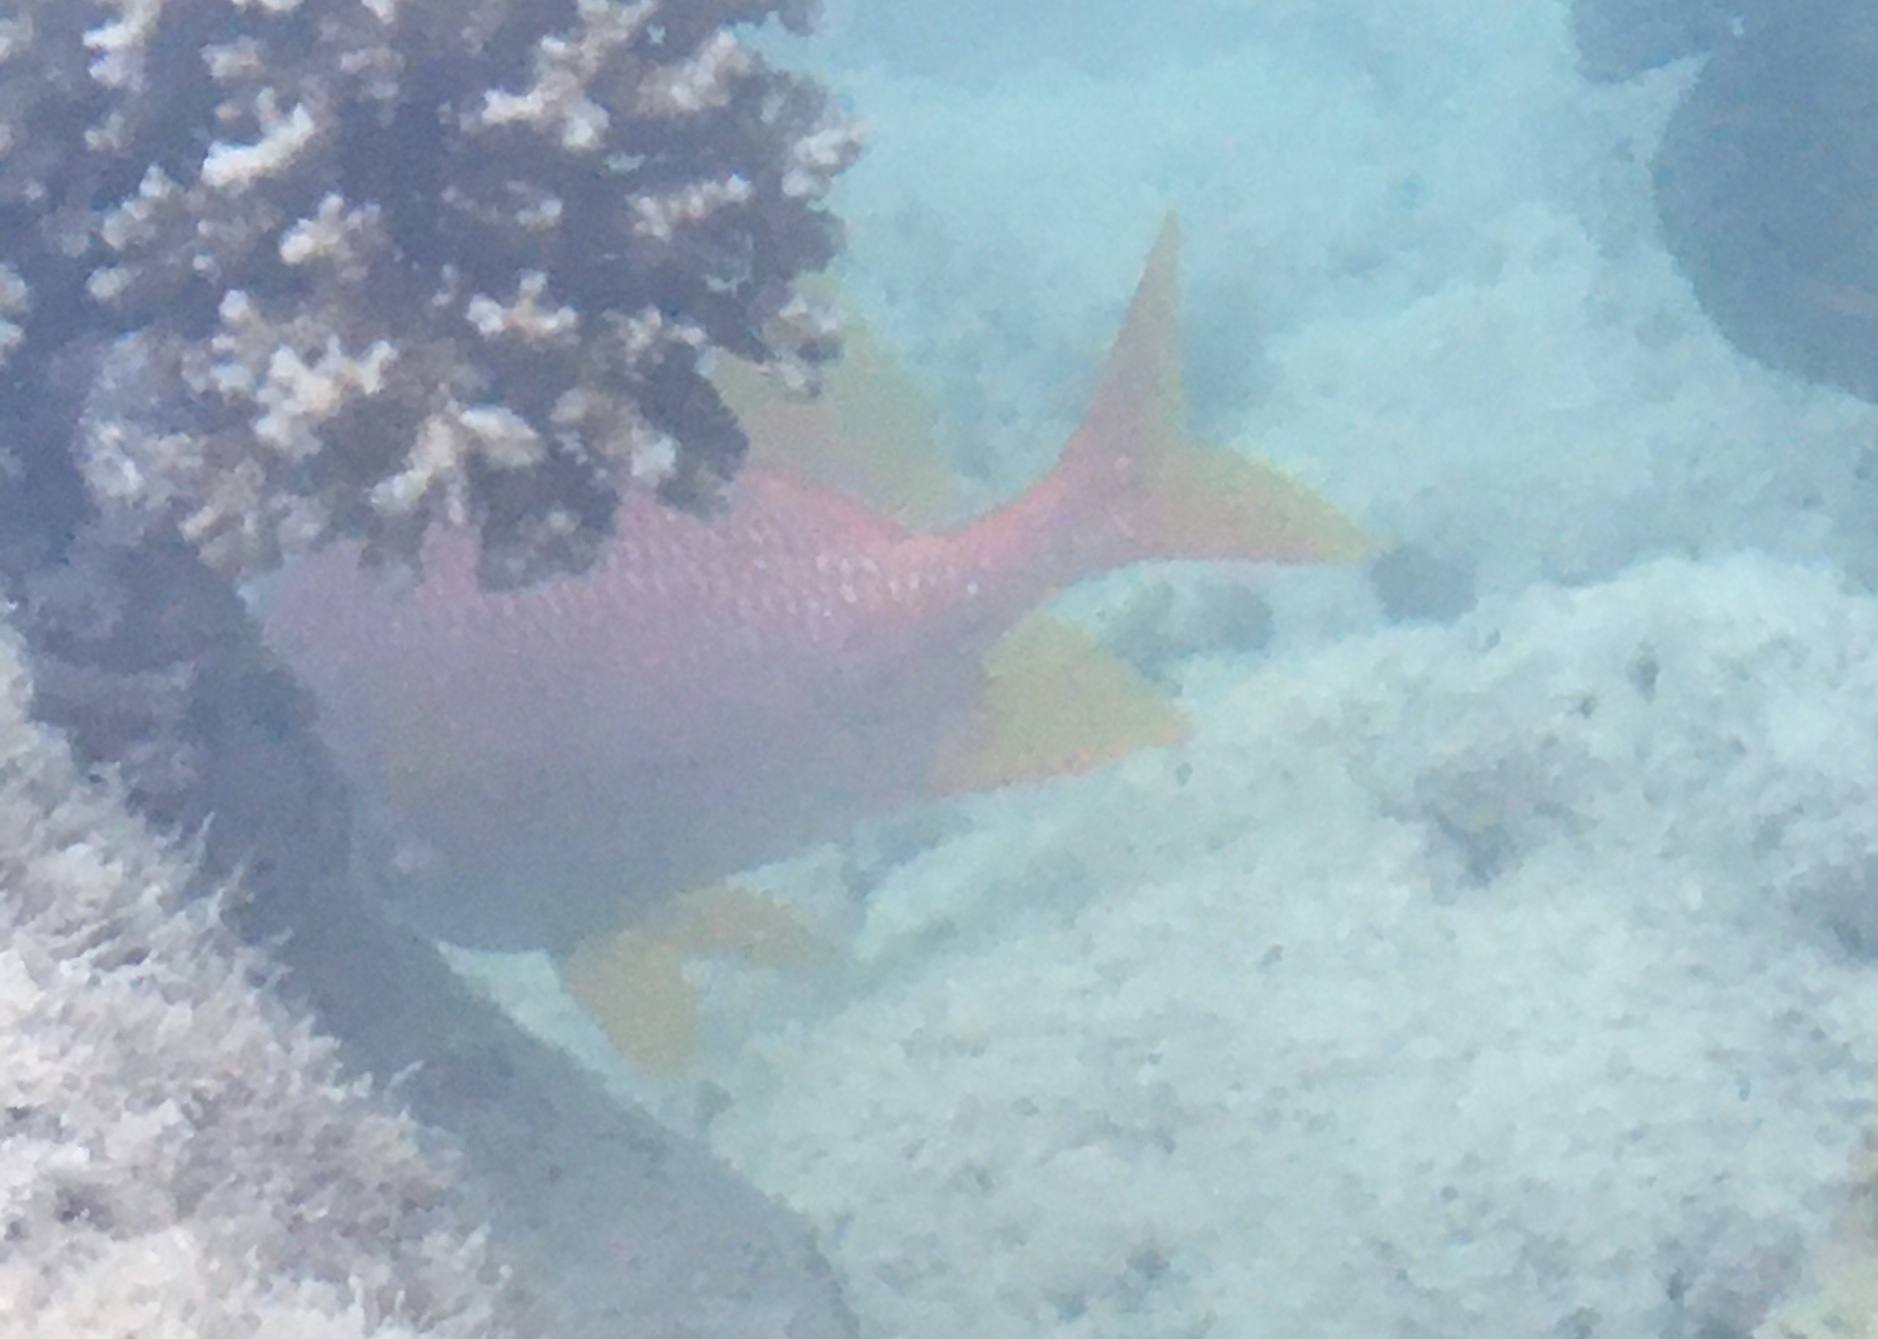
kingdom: Animalia
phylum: Chordata
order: Beryciformes
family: Holocentridae
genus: Sargocentron
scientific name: Sargocentron spiniferum
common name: Giant squirrelfish
